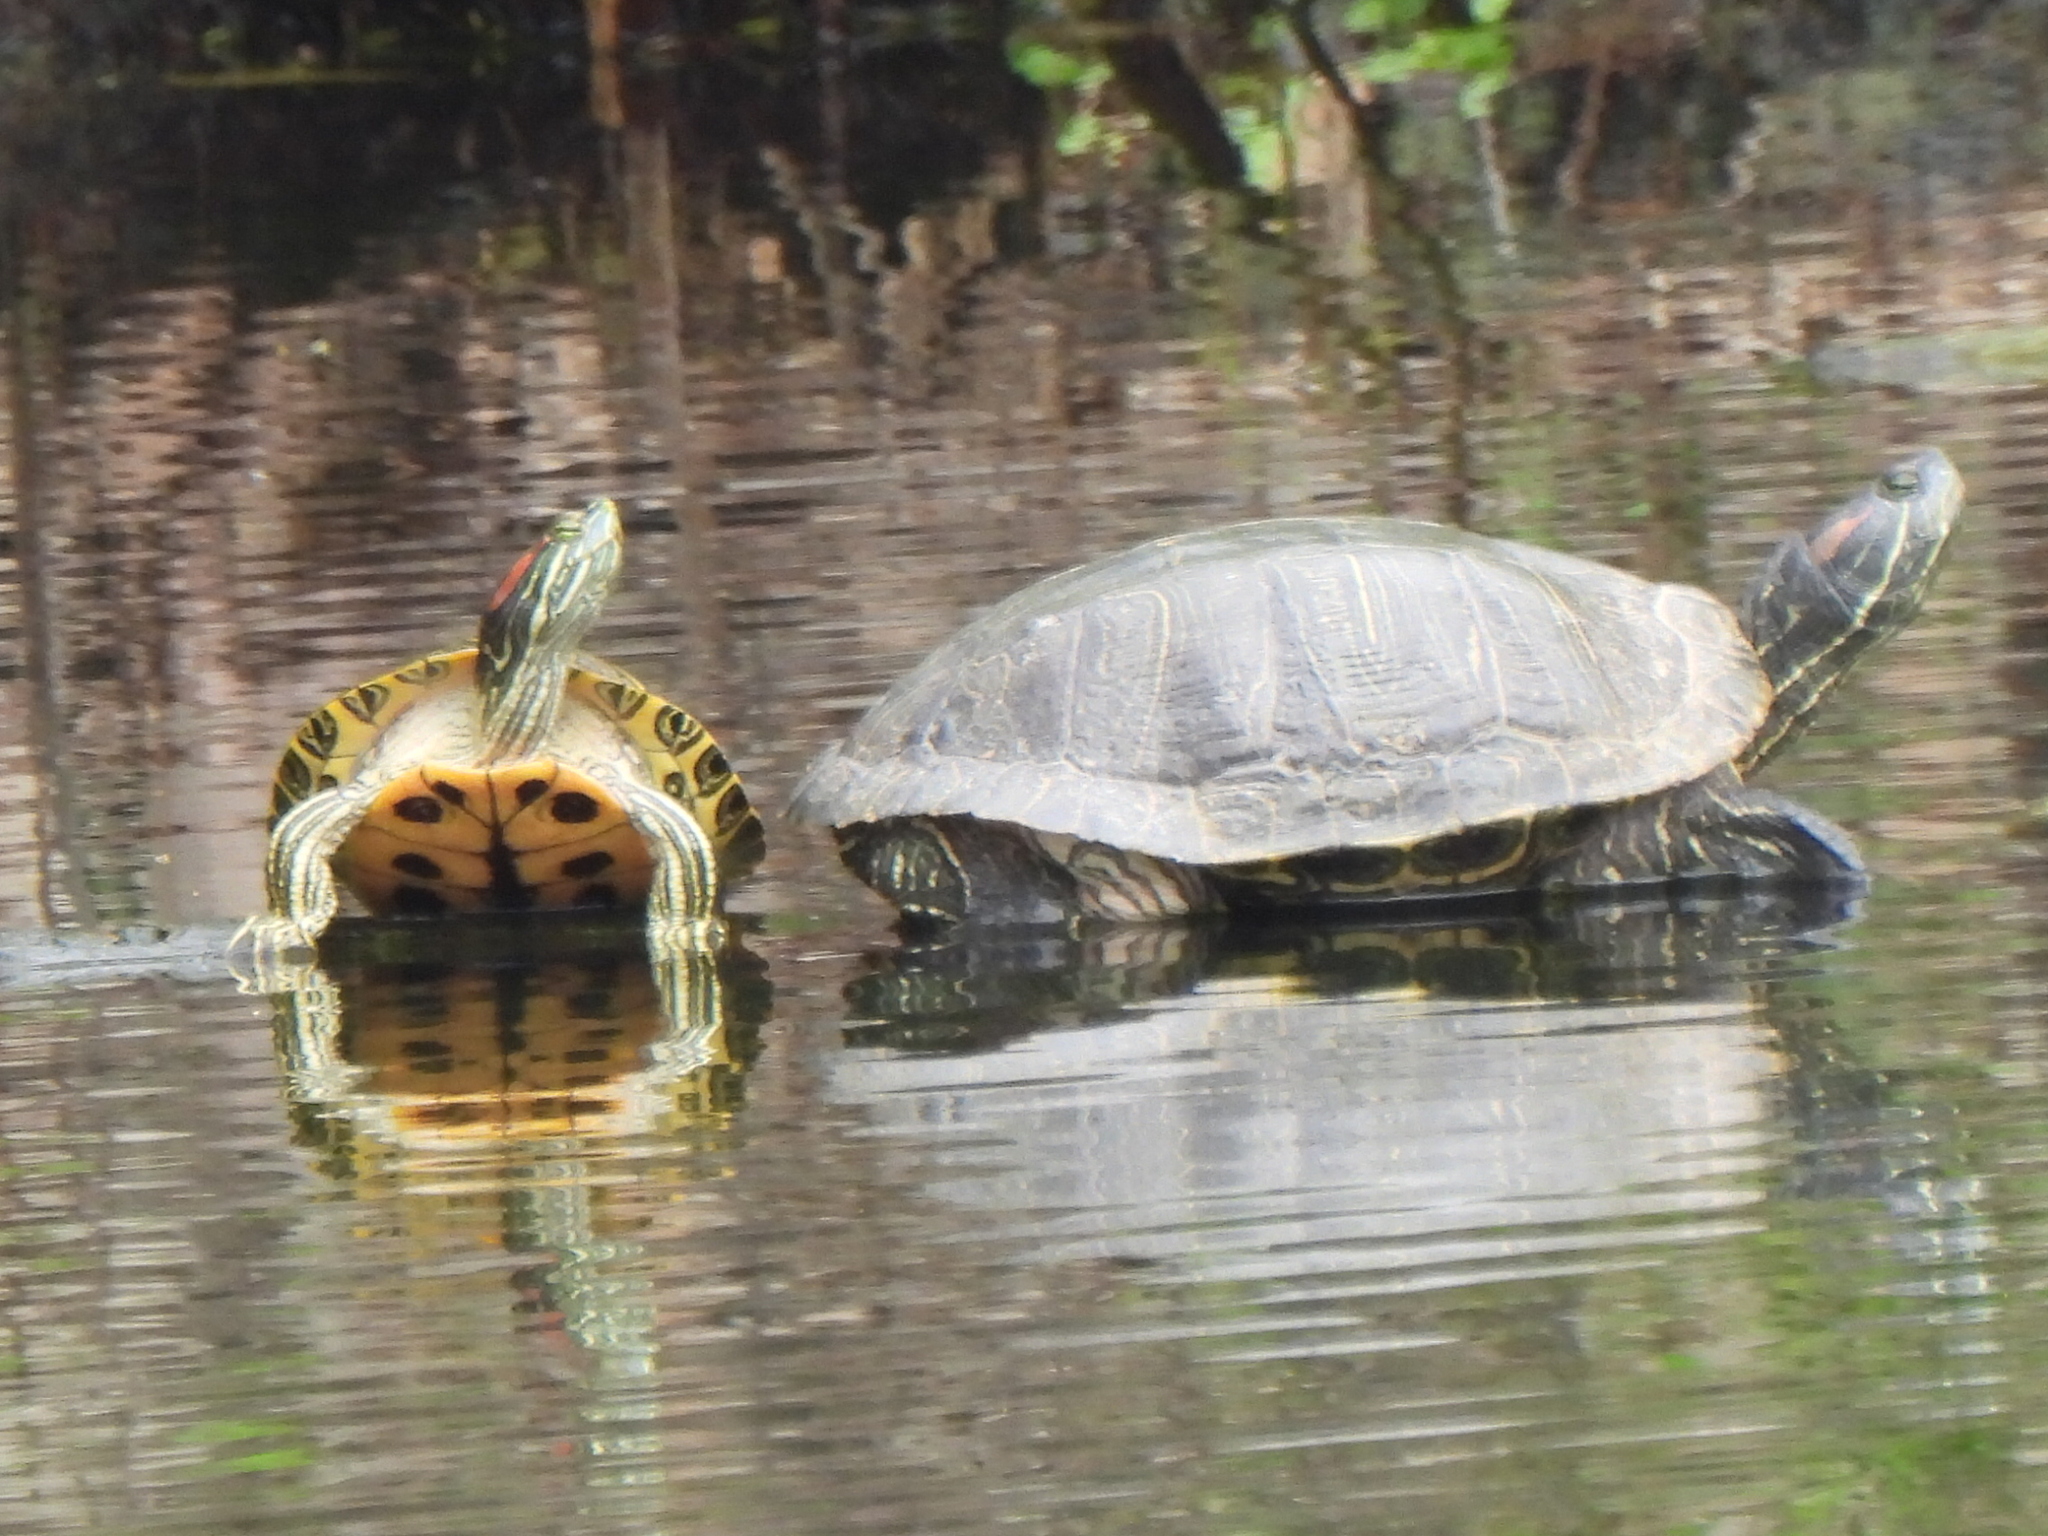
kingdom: Animalia
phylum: Chordata
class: Testudines
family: Emydidae
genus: Trachemys
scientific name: Trachemys scripta
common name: Slider
